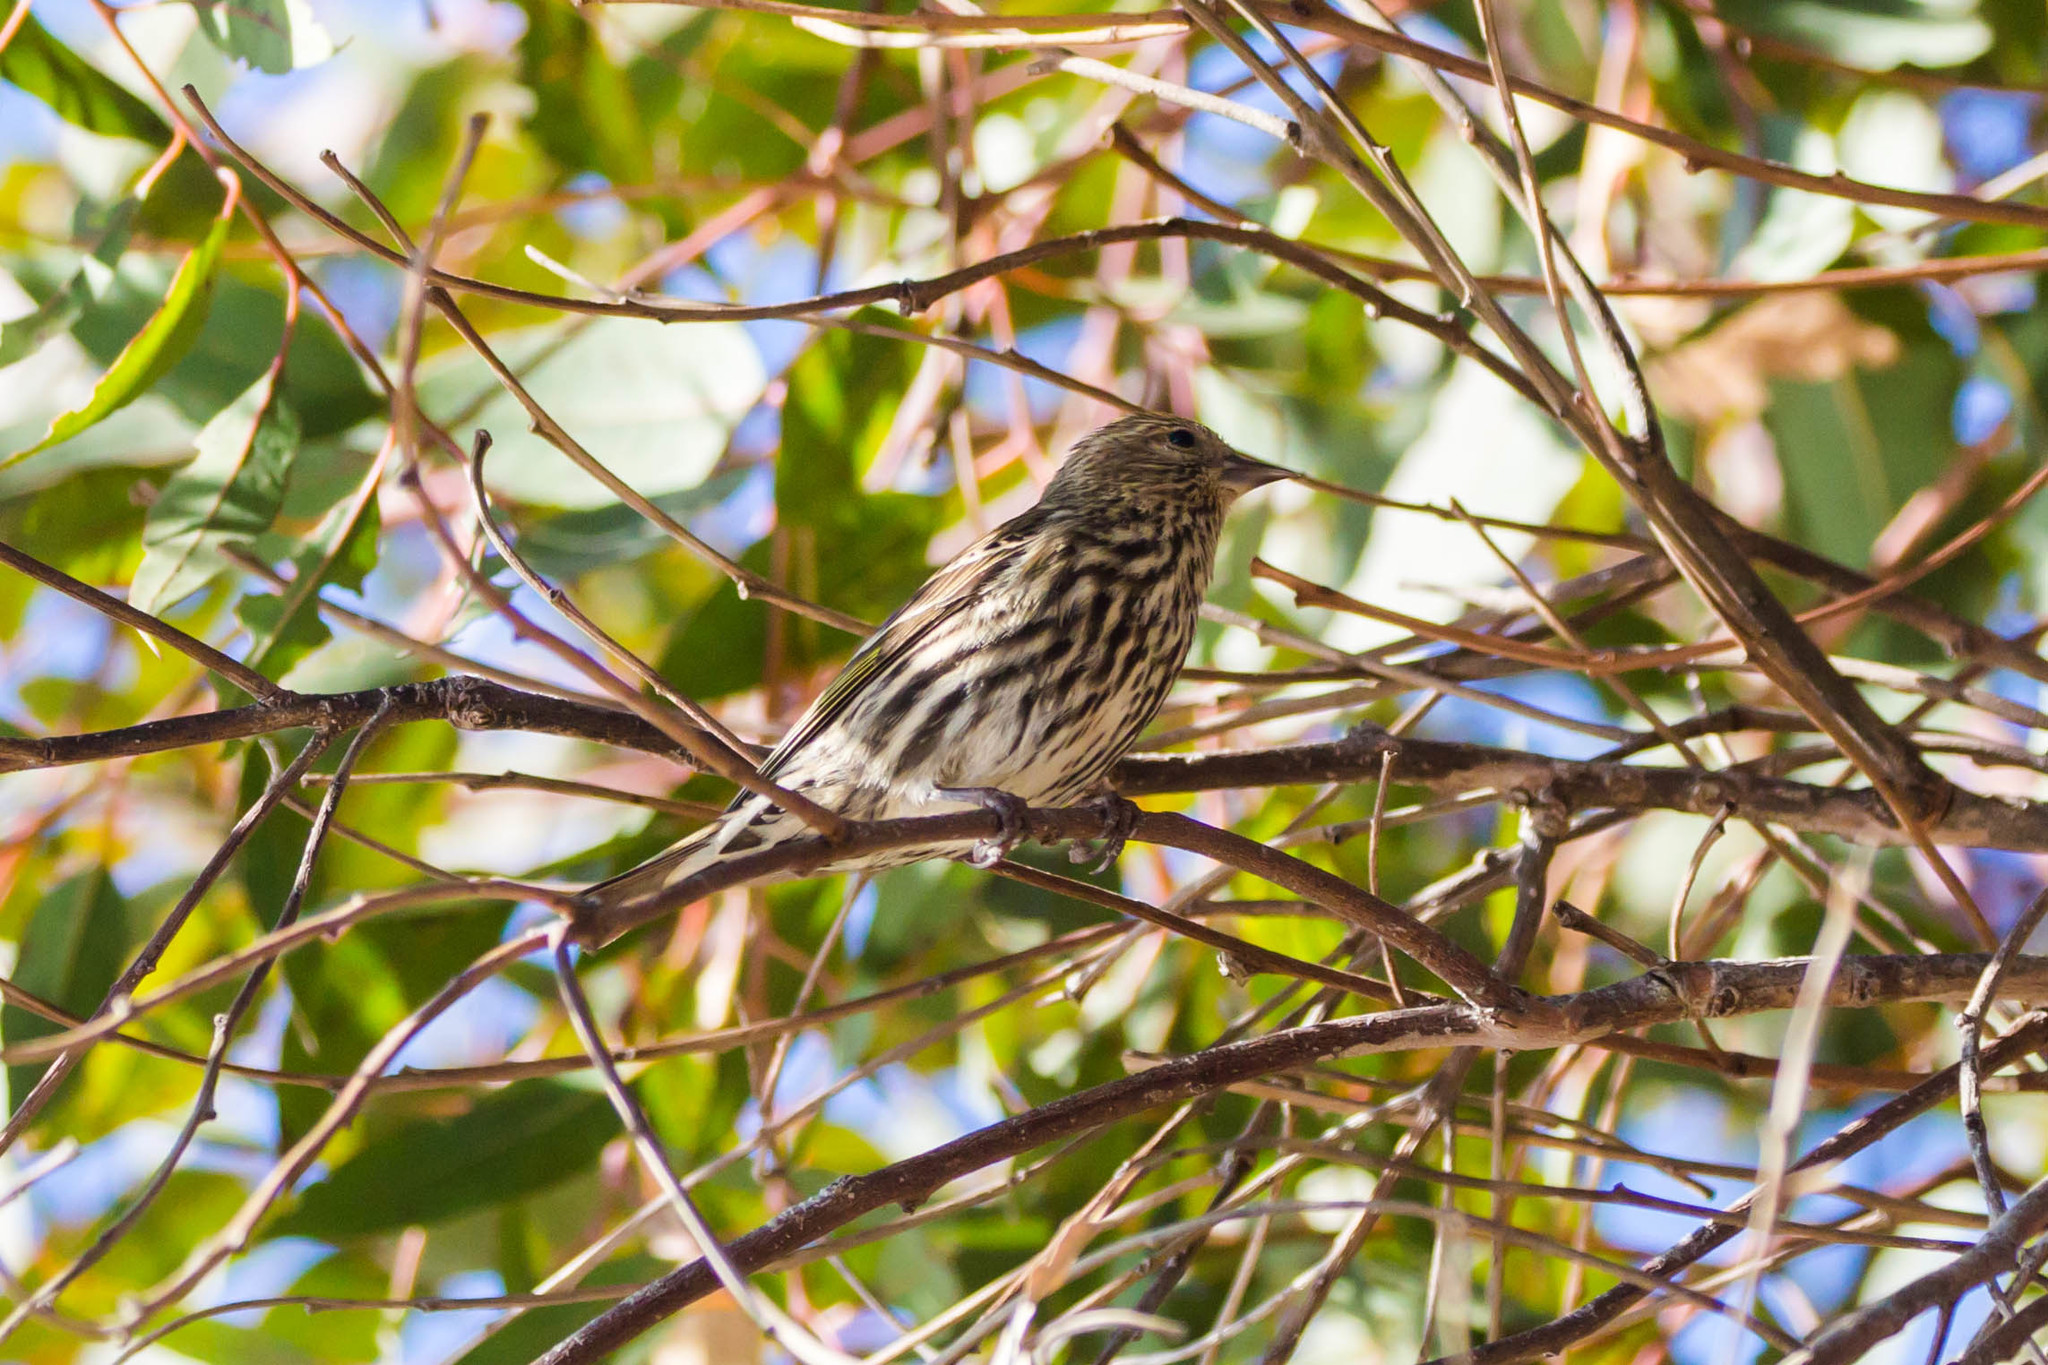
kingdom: Animalia
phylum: Chordata
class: Aves
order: Passeriformes
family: Fringillidae
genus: Spinus
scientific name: Spinus pinus
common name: Pine siskin
